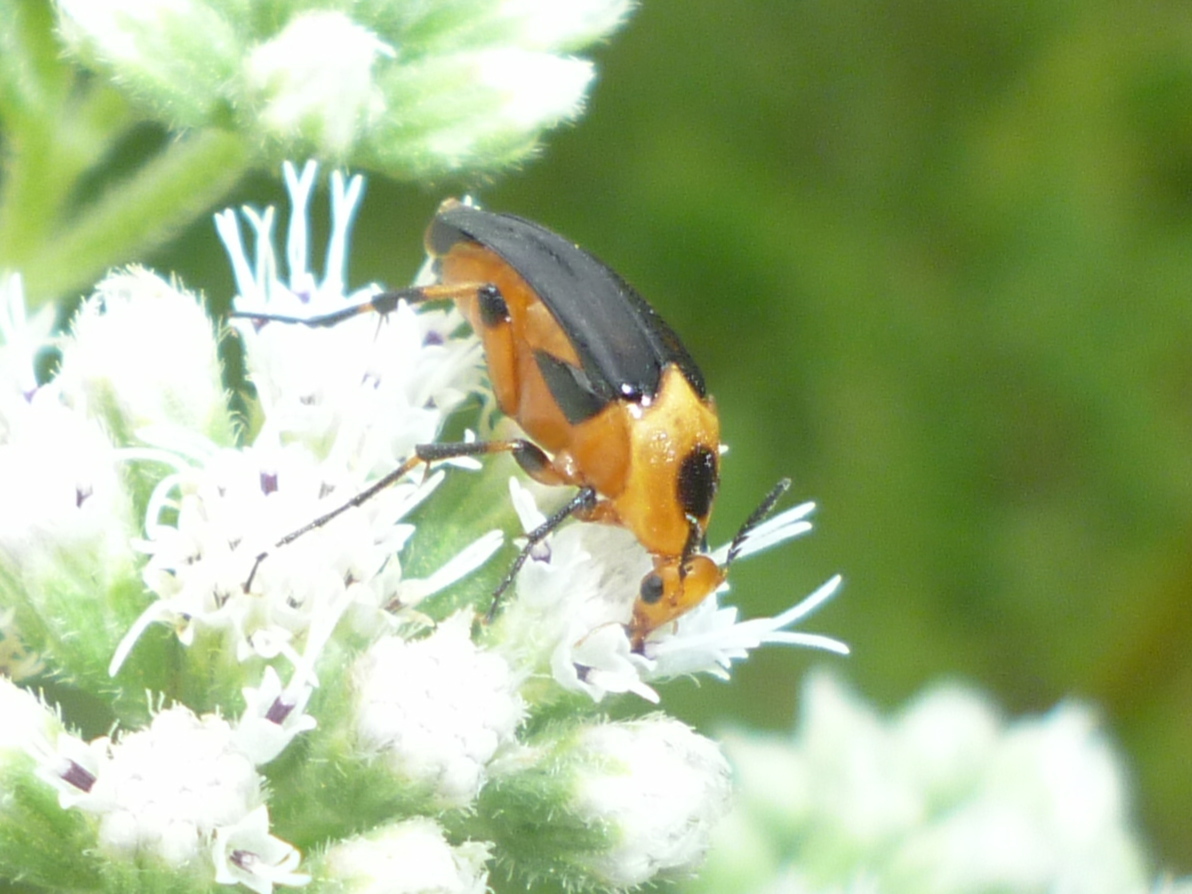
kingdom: Animalia
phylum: Arthropoda
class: Insecta
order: Coleoptera
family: Ripiphoridae
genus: Macrosiagon
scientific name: Macrosiagon limbatum
